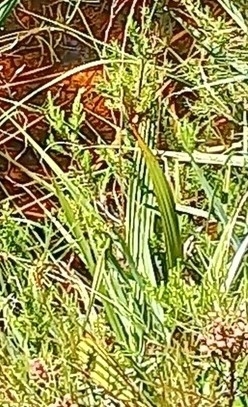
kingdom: Plantae
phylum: Tracheophyta
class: Liliopsida
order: Commelinales
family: Haemodoraceae
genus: Wachendorfia
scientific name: Wachendorfia thyrsiflora
